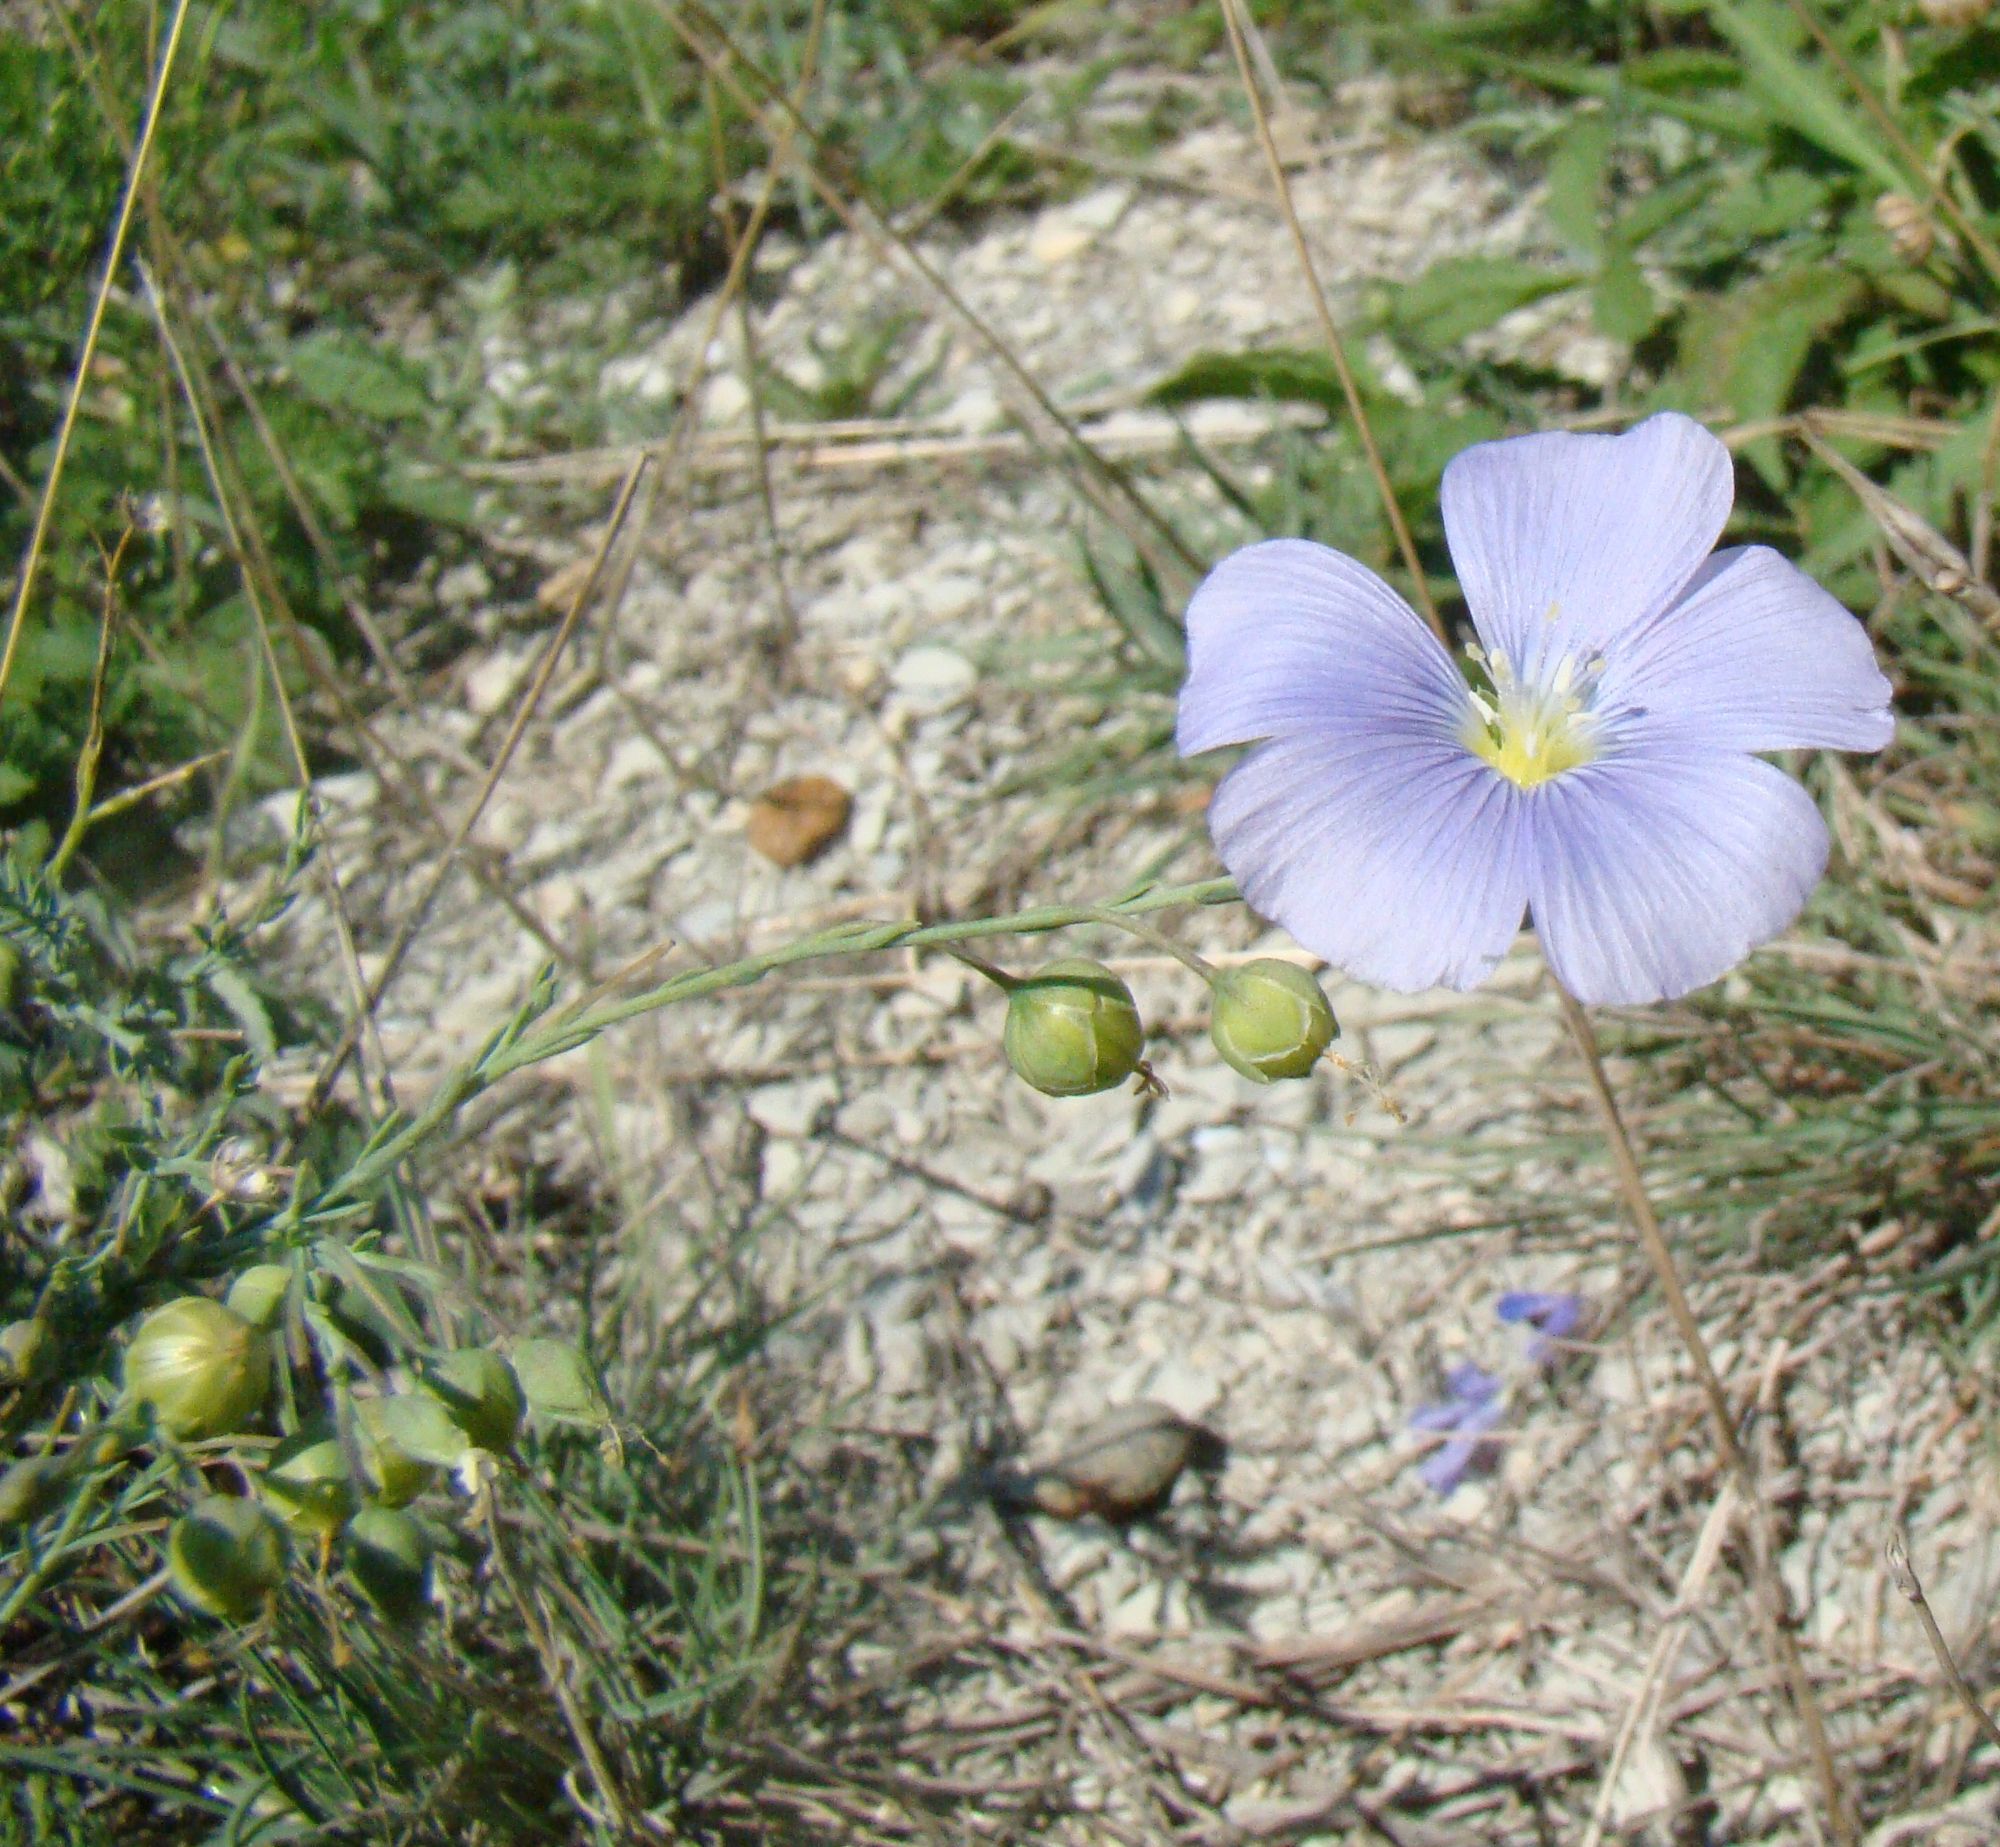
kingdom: Plantae
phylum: Tracheophyta
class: Magnoliopsida
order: Malpighiales
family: Linaceae
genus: Linum
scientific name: Linum austriacum
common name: Austrian flax
